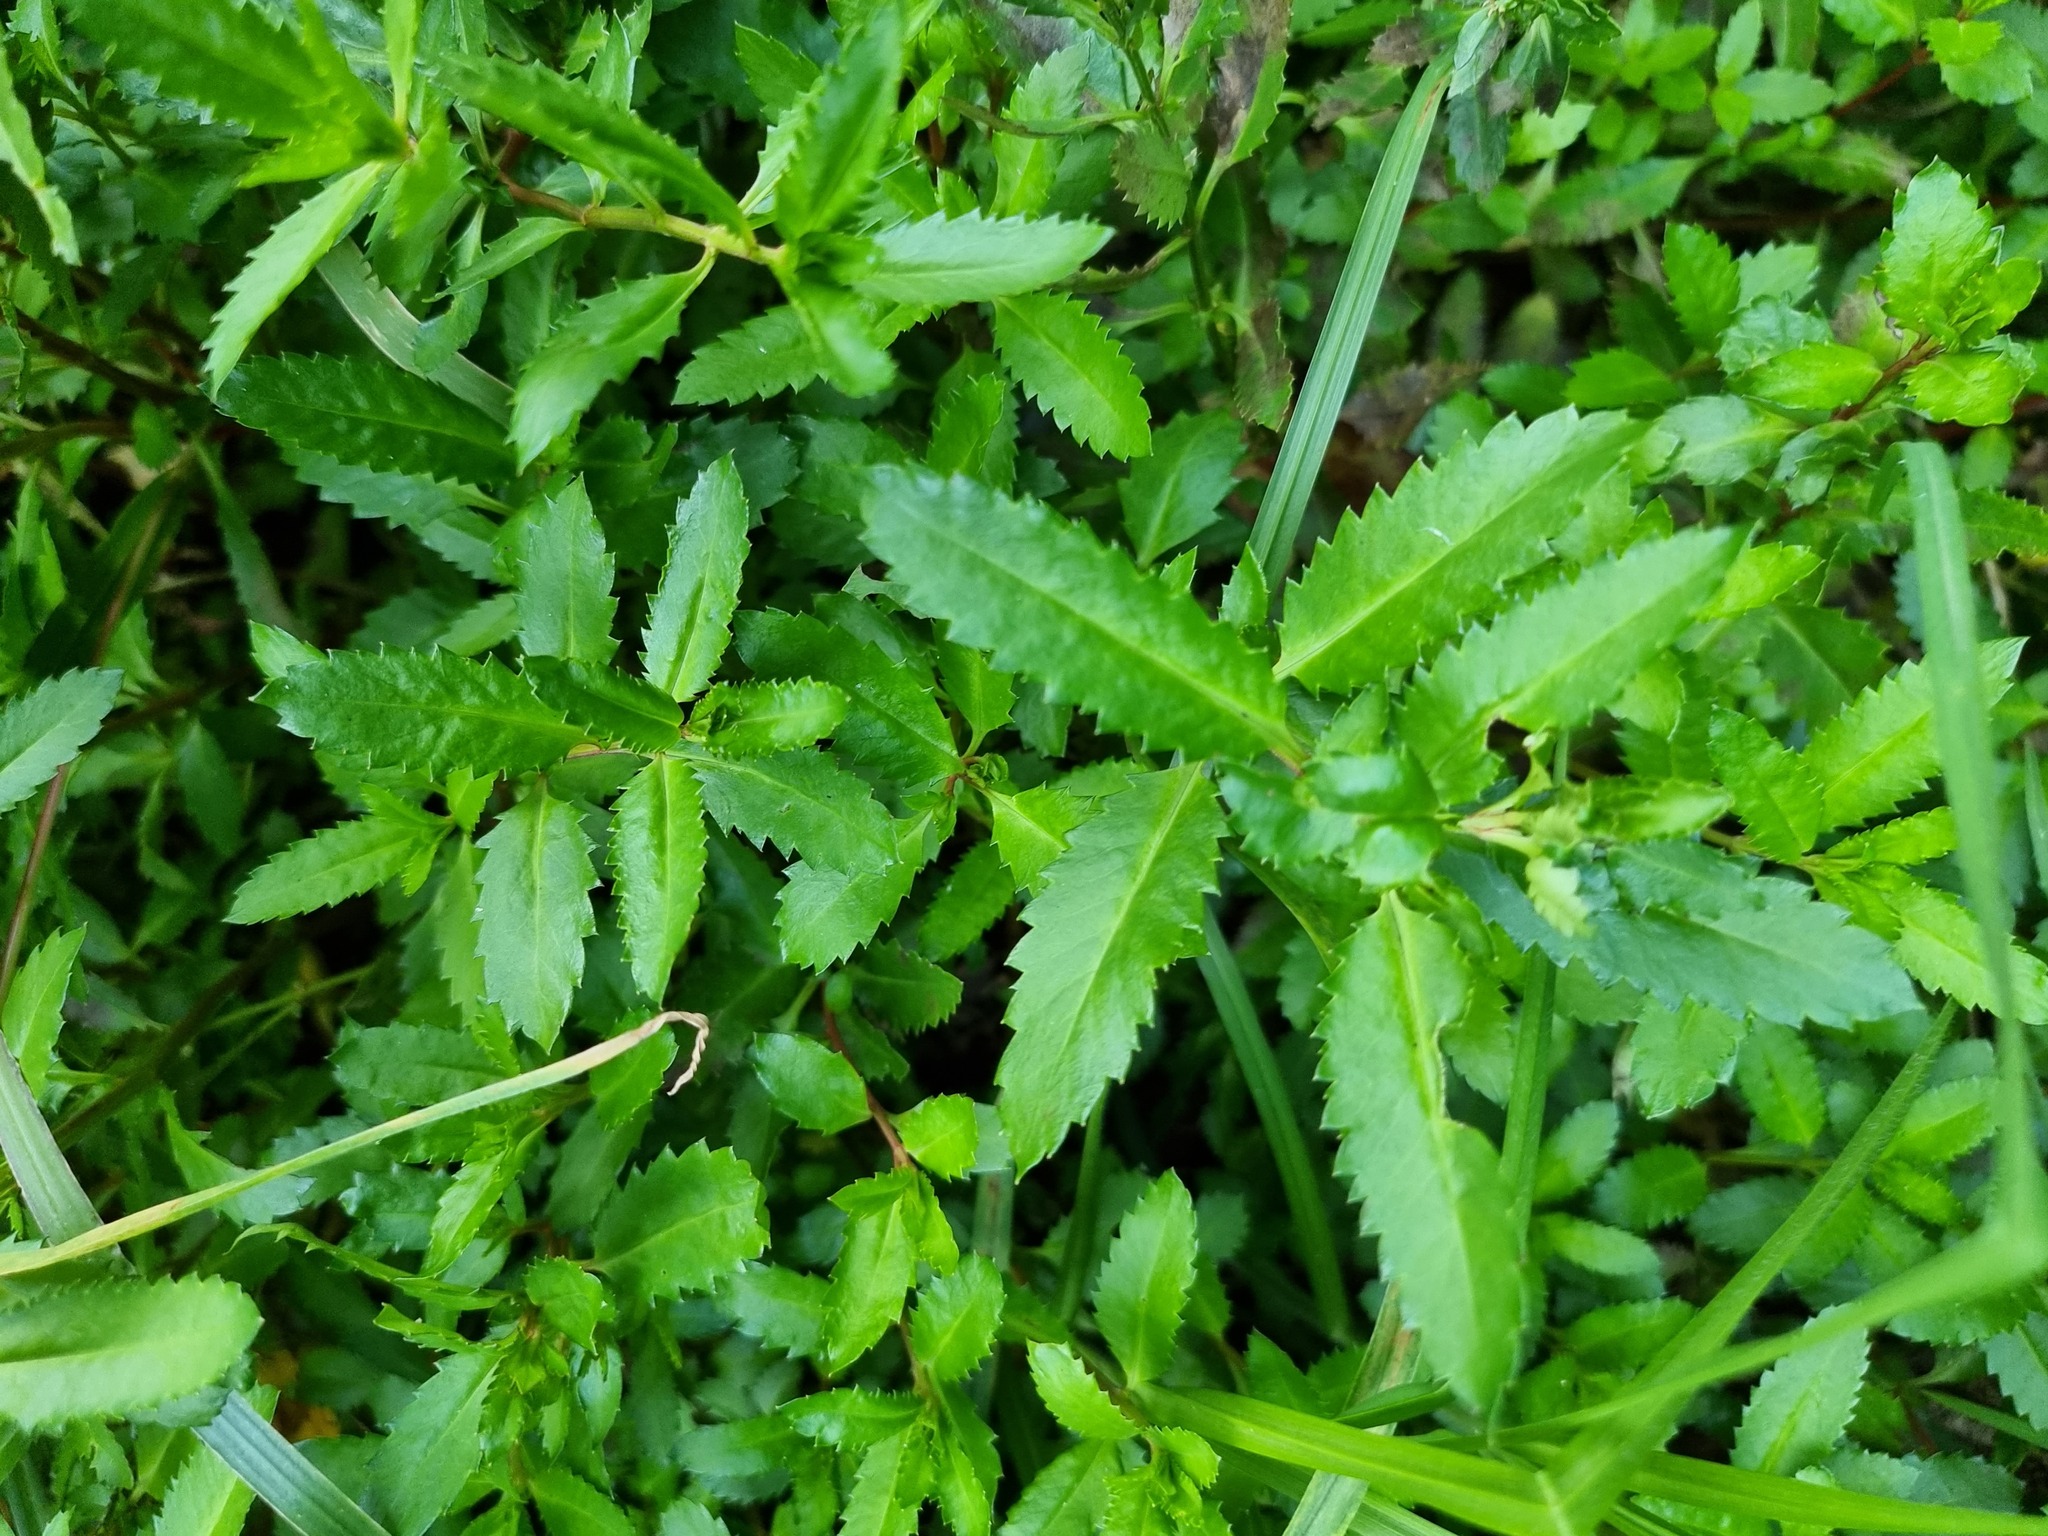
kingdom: Plantae
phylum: Tracheophyta
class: Magnoliopsida
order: Saxifragales
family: Haloragaceae
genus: Haloragis
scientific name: Haloragis erecta
